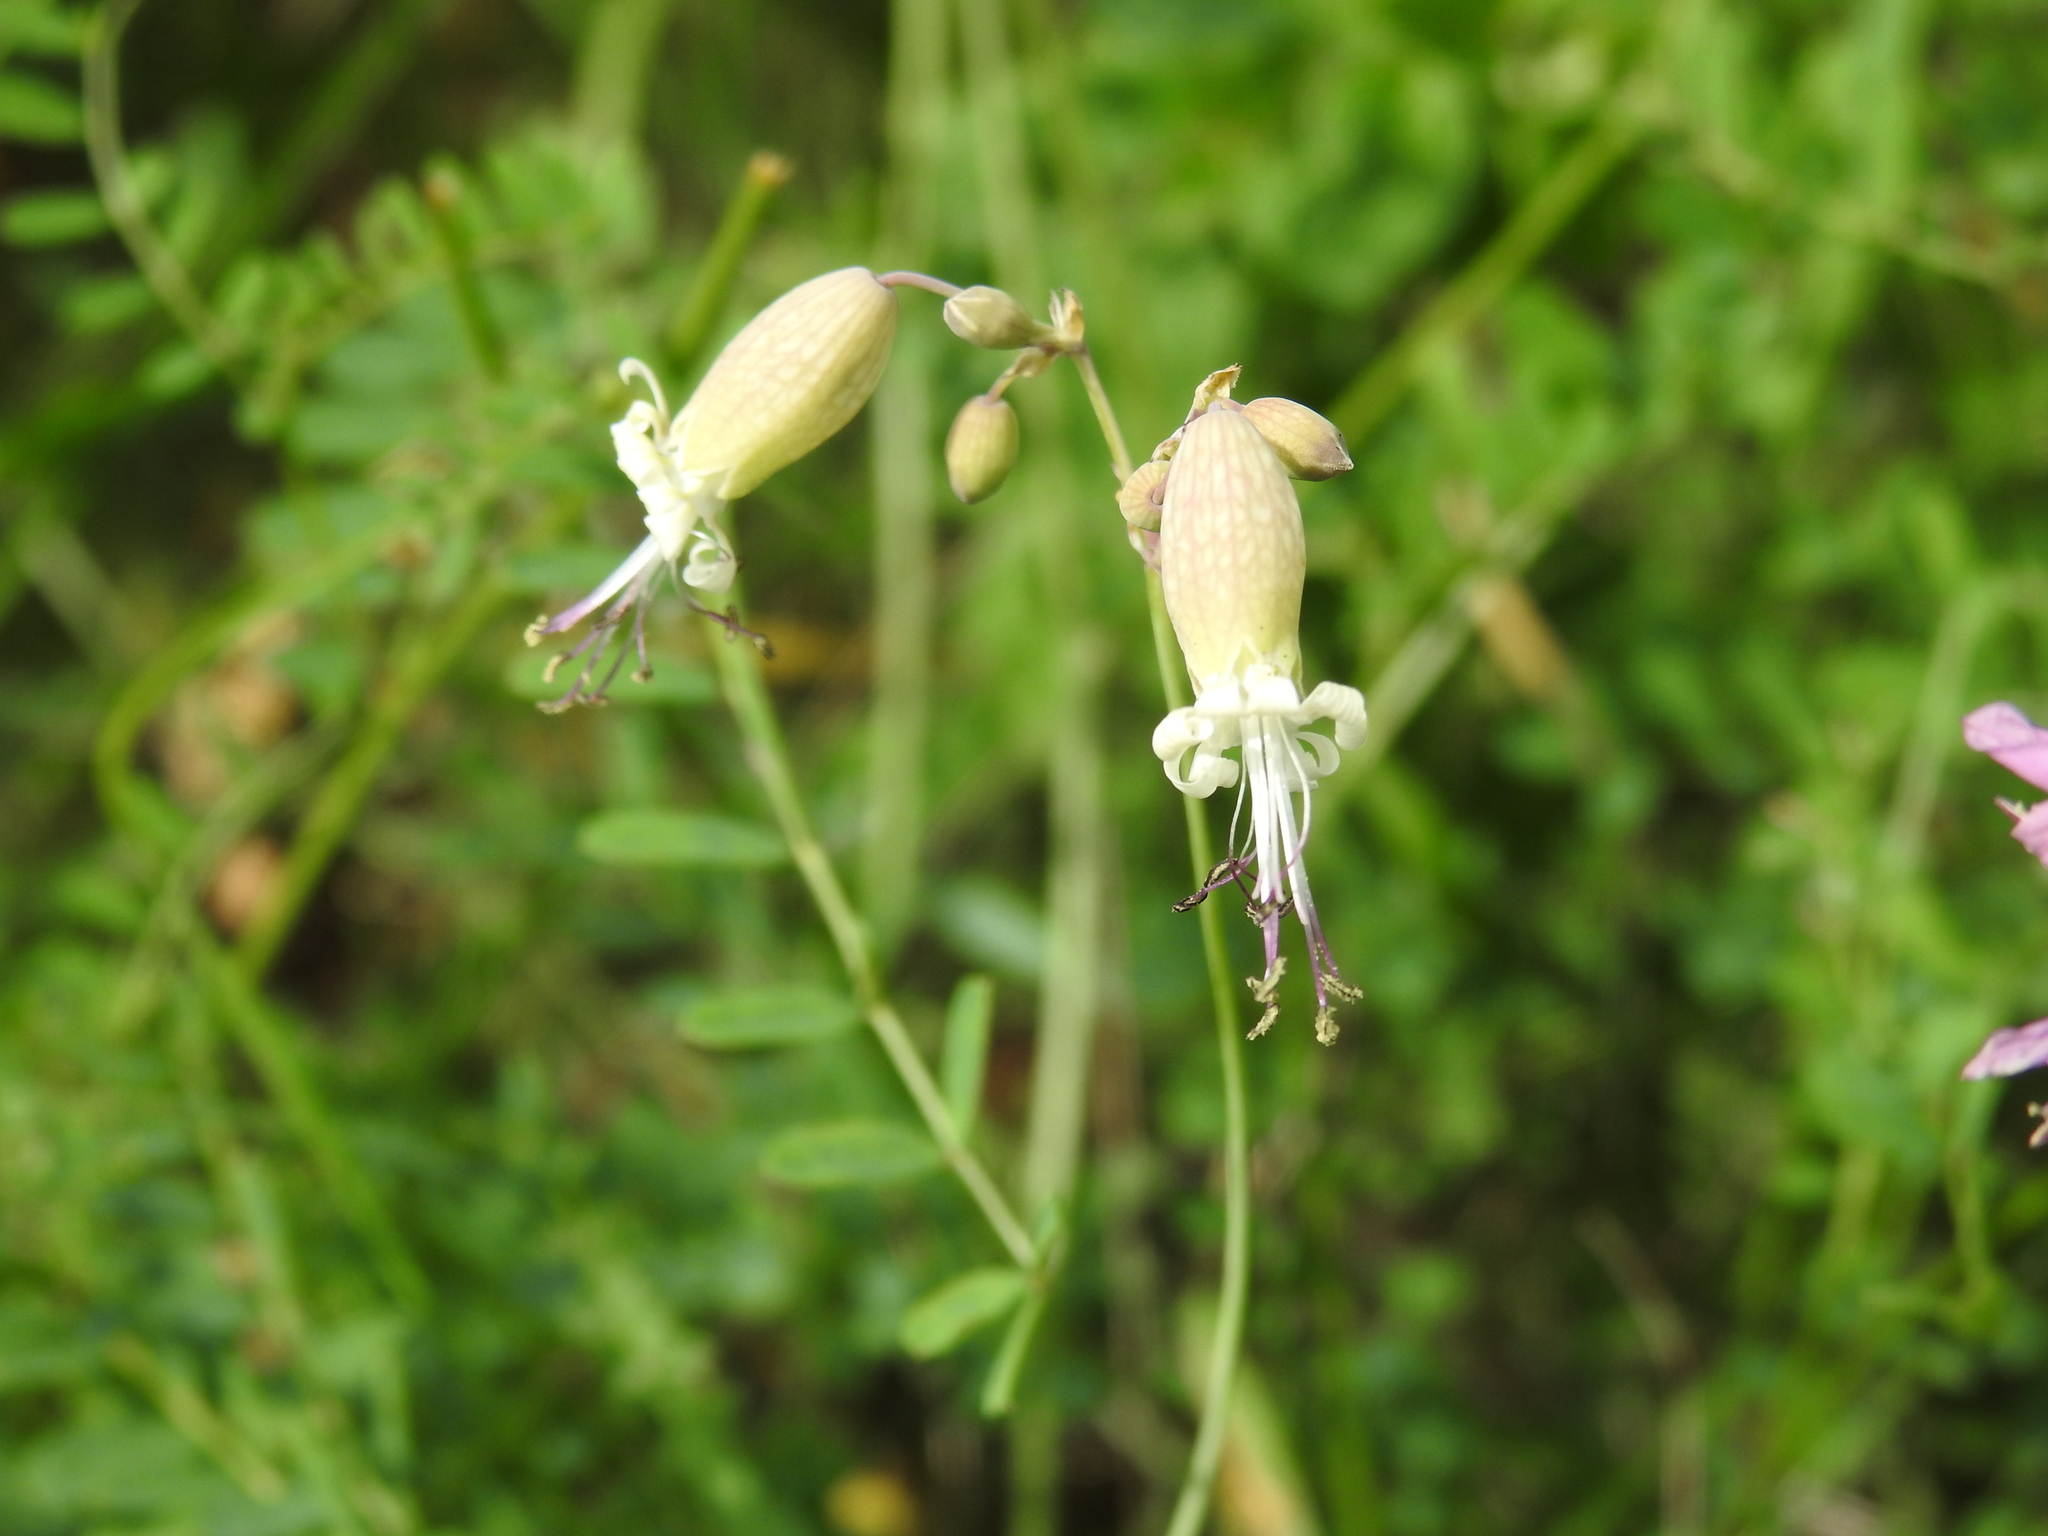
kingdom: Plantae
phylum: Tracheophyta
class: Magnoliopsida
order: Caryophyllales
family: Caryophyllaceae
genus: Silene
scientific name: Silene vulgaris
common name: Bladder campion
